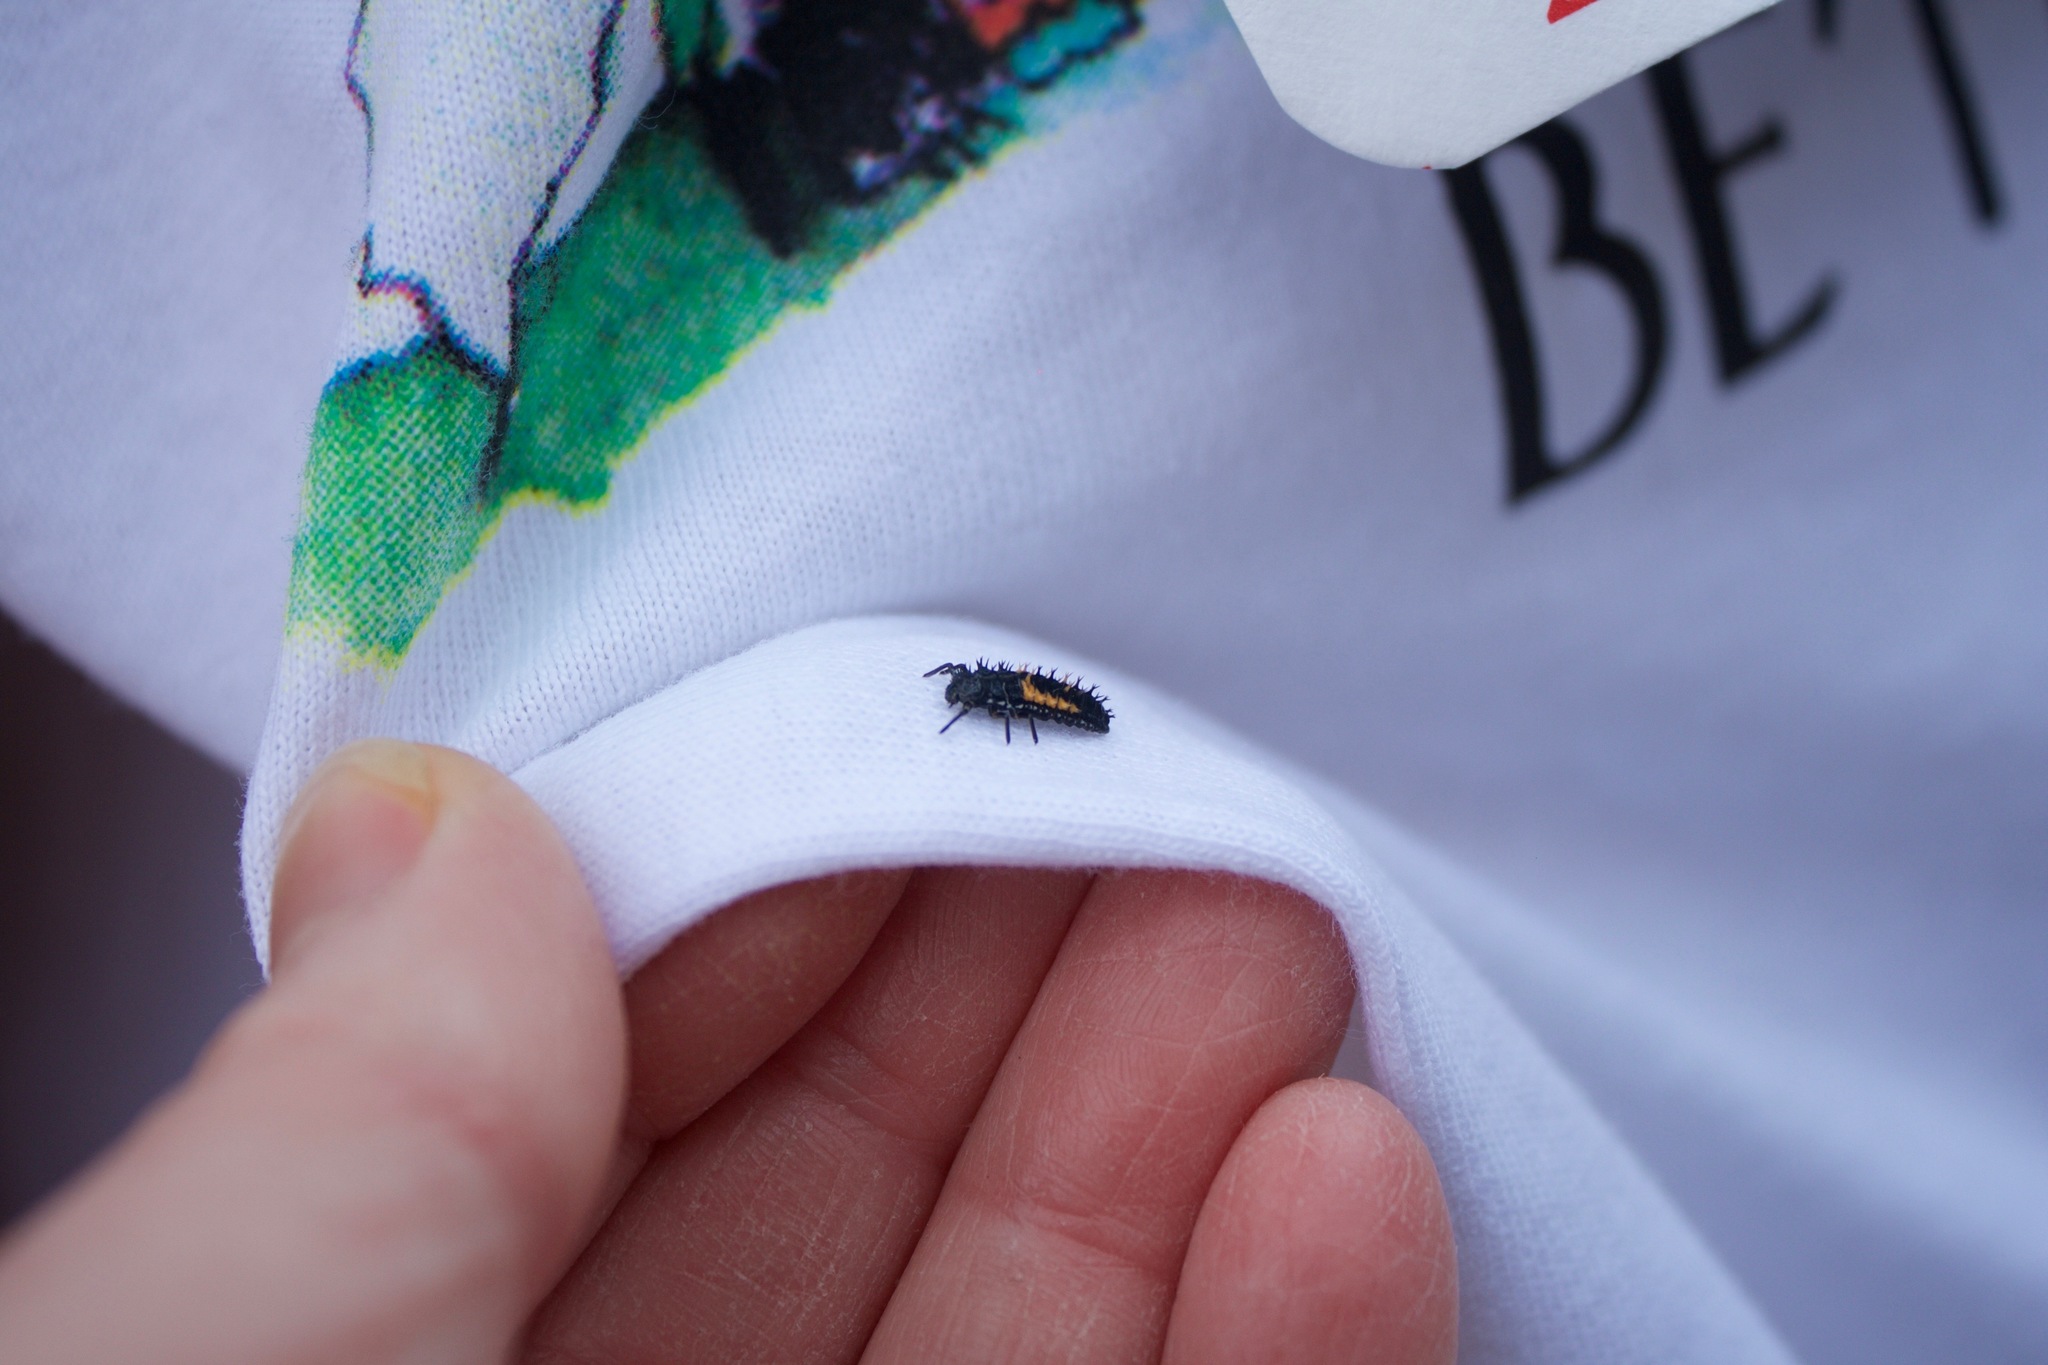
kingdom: Animalia
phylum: Arthropoda
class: Insecta
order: Coleoptera
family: Coccinellidae
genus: Harmonia
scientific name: Harmonia axyridis
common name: Harlequin ladybird
